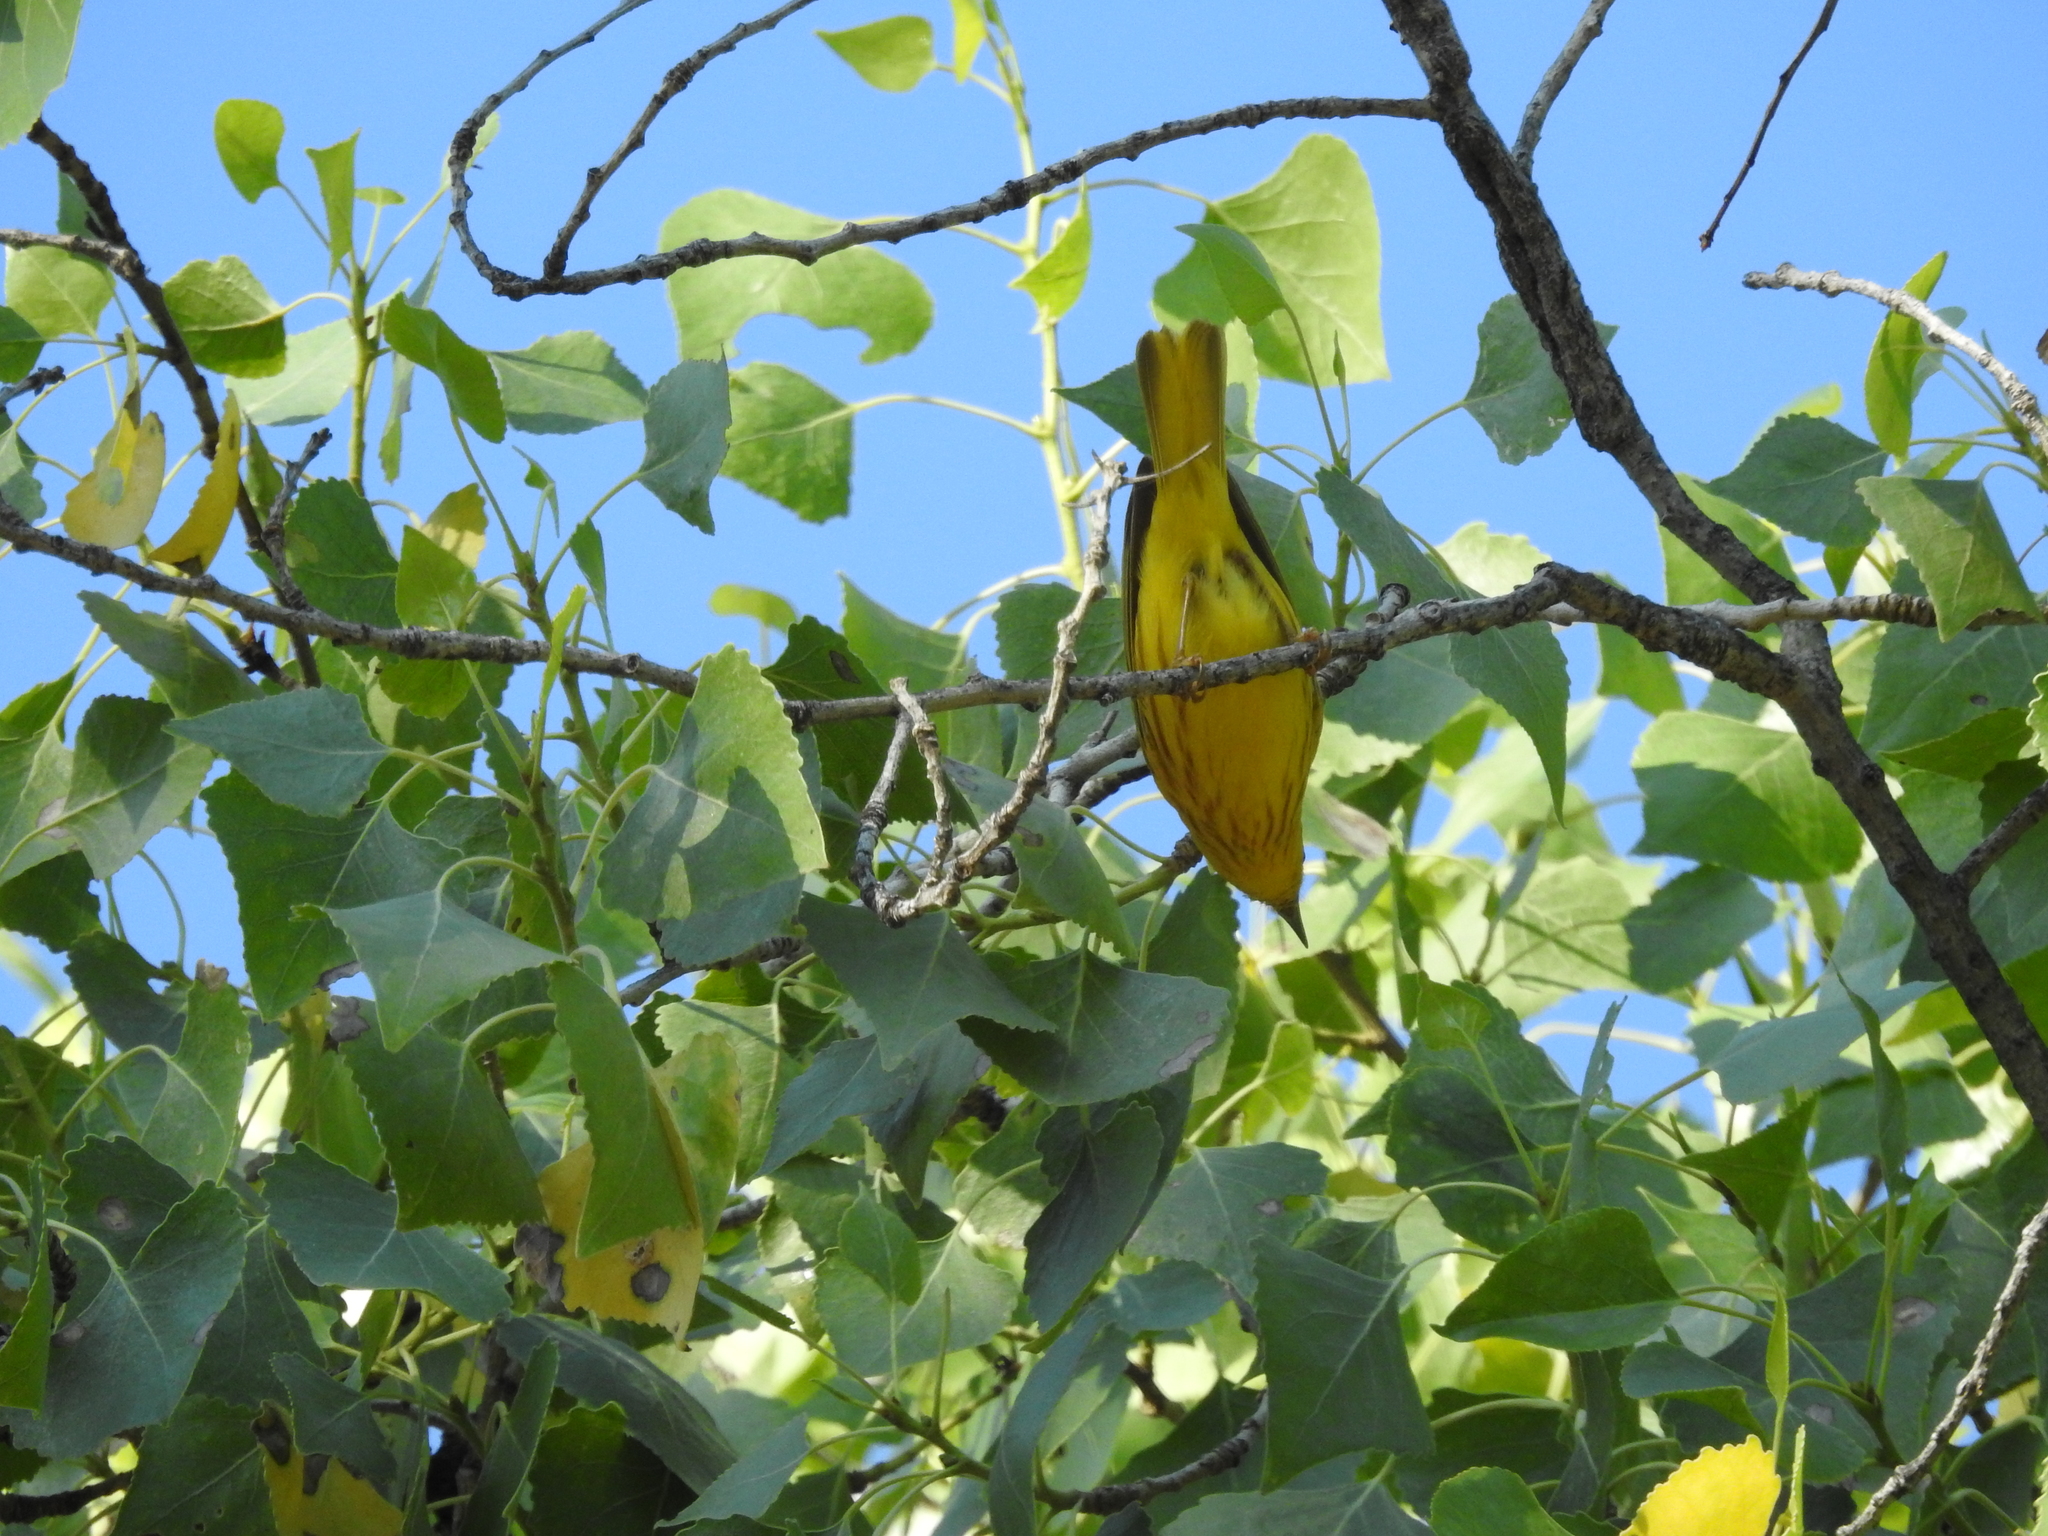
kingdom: Animalia
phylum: Chordata
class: Aves
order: Passeriformes
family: Parulidae
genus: Setophaga
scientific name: Setophaga petechia
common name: Yellow warbler
